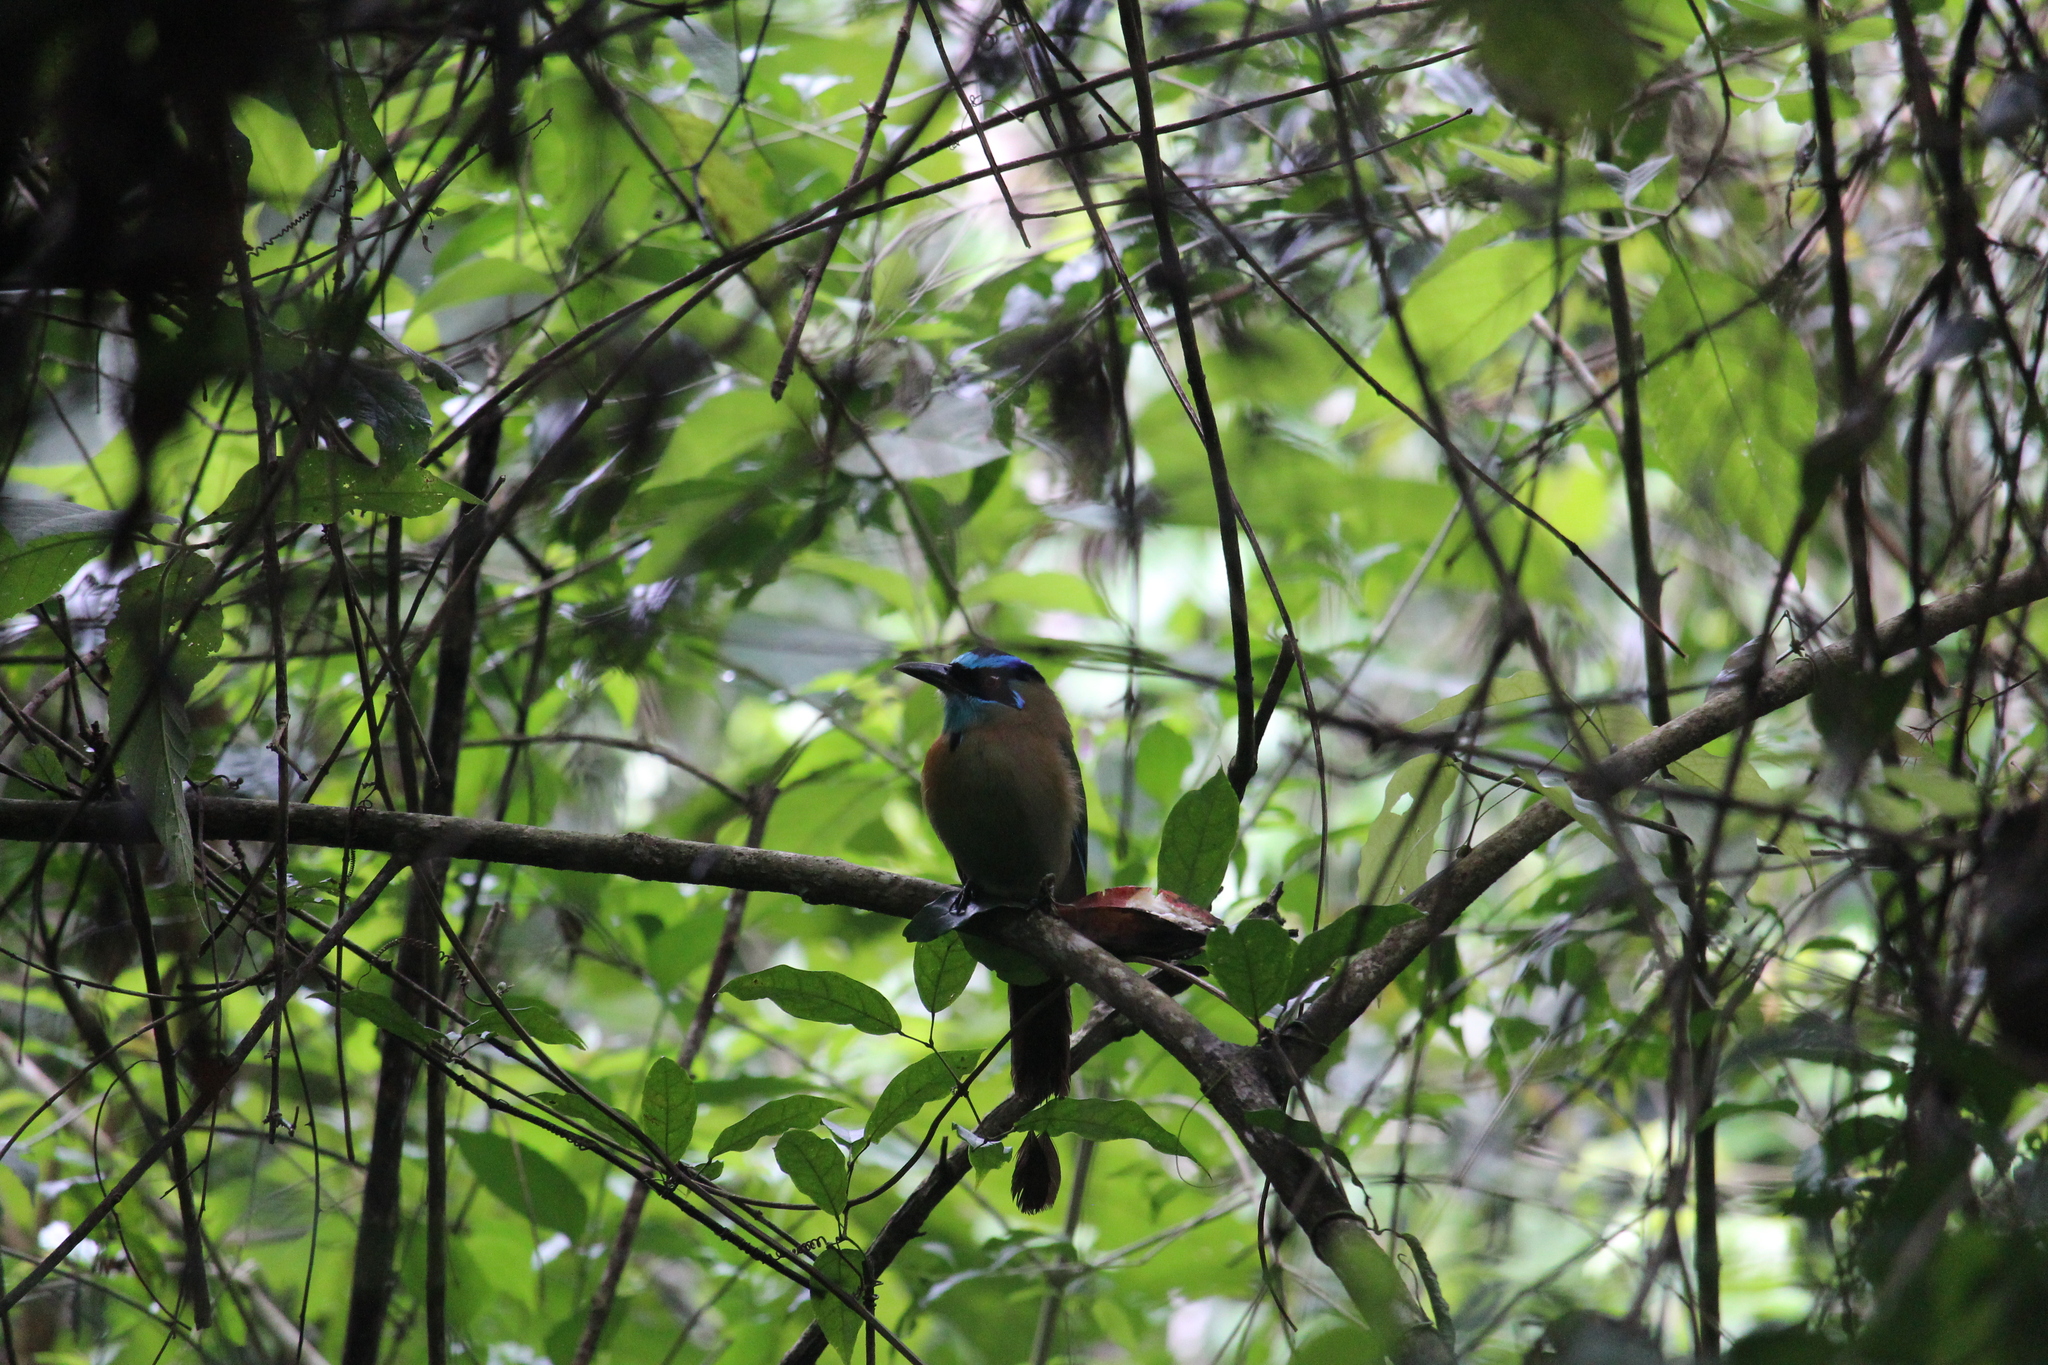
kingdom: Animalia
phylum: Chordata
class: Aves
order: Coraciiformes
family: Momotidae
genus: Momotus
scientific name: Momotus lessonii
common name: Lesson's motmot
